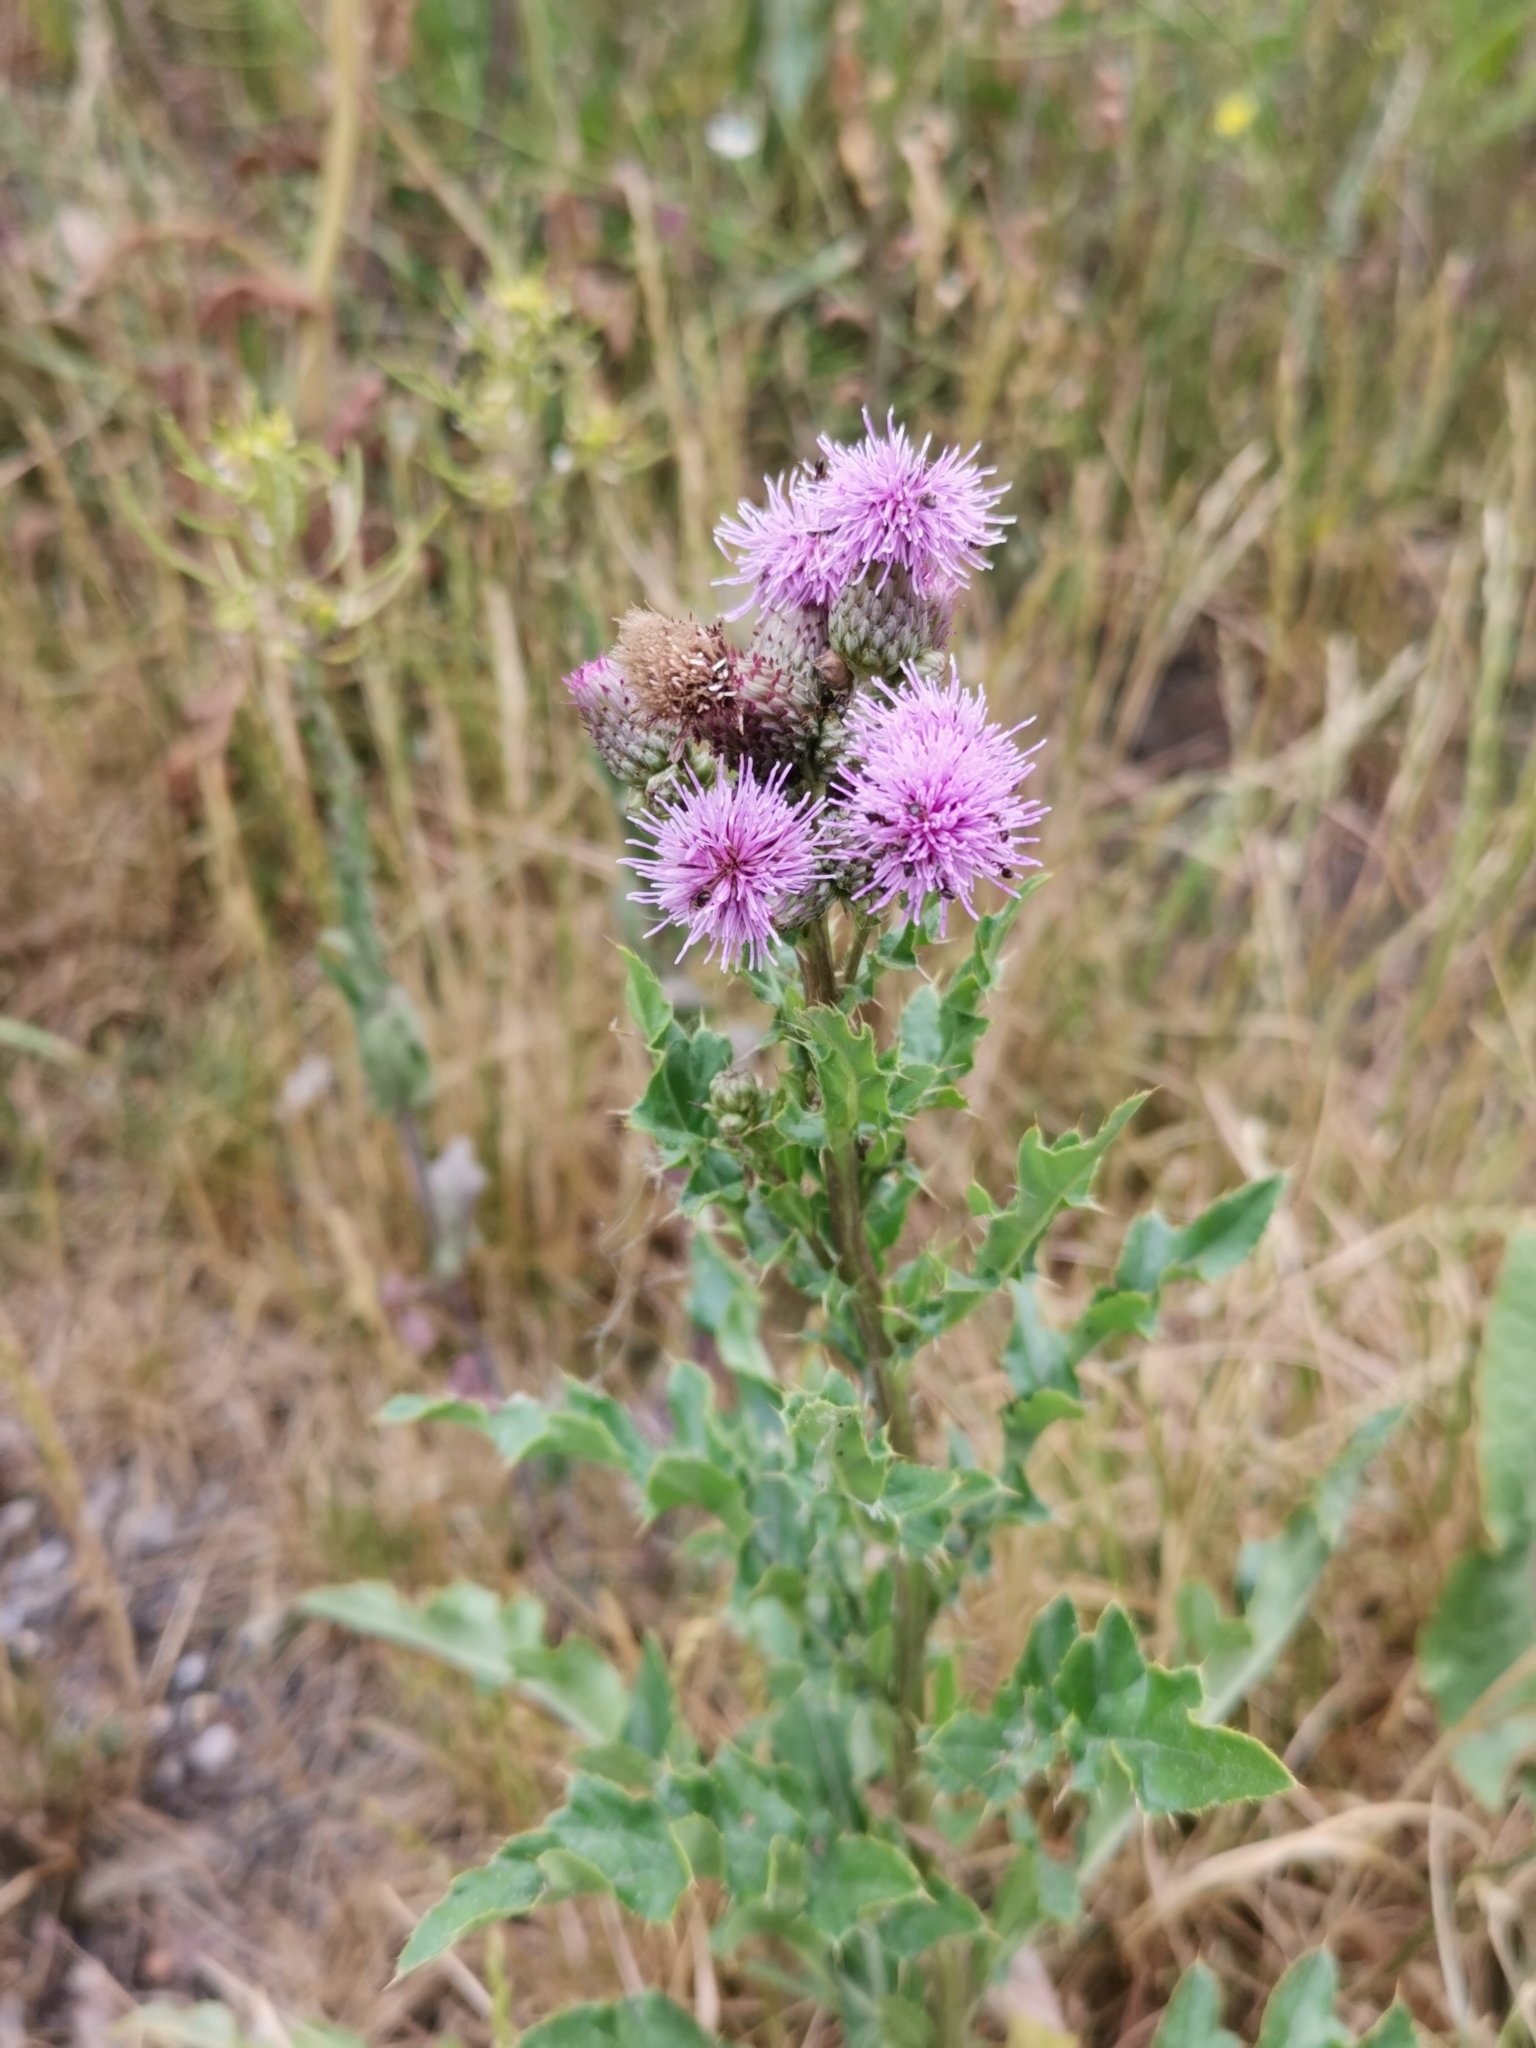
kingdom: Plantae
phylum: Tracheophyta
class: Magnoliopsida
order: Asterales
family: Asteraceae
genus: Cirsium
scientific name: Cirsium arvense
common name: Creeping thistle
